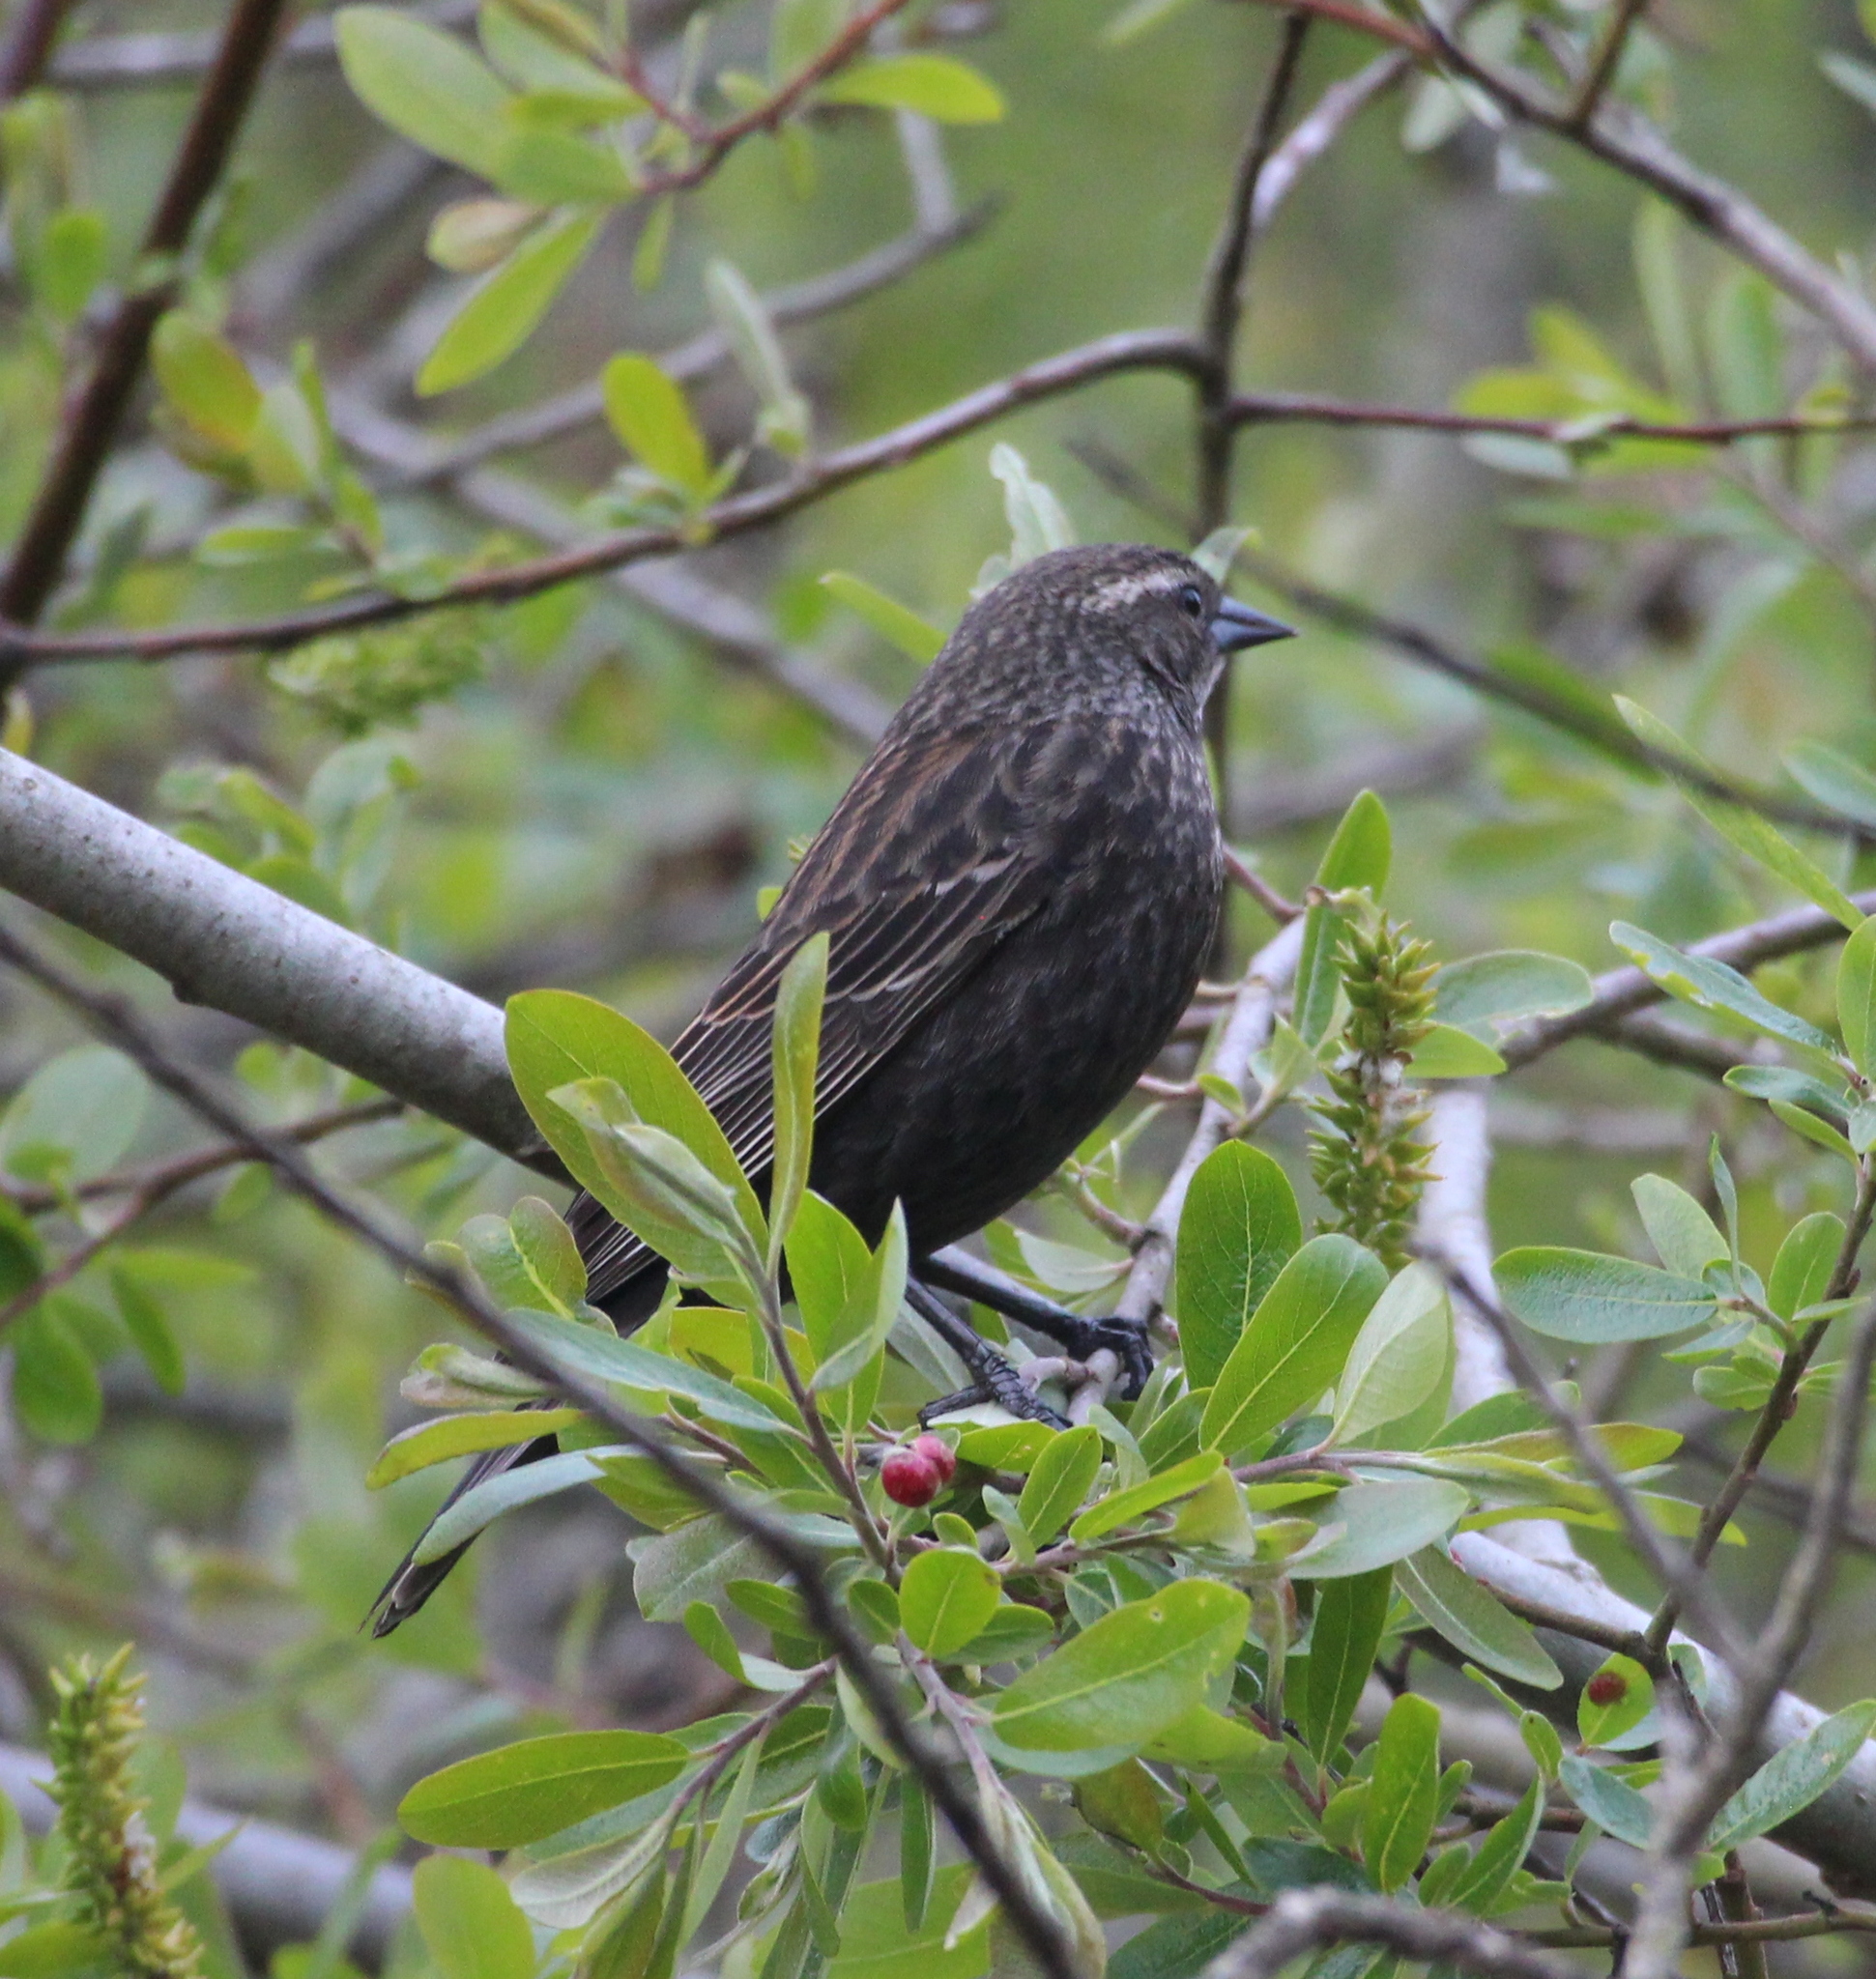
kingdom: Animalia
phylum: Chordata
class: Aves
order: Passeriformes
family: Icteridae
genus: Agelaius
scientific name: Agelaius phoeniceus
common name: Red-winged blackbird
